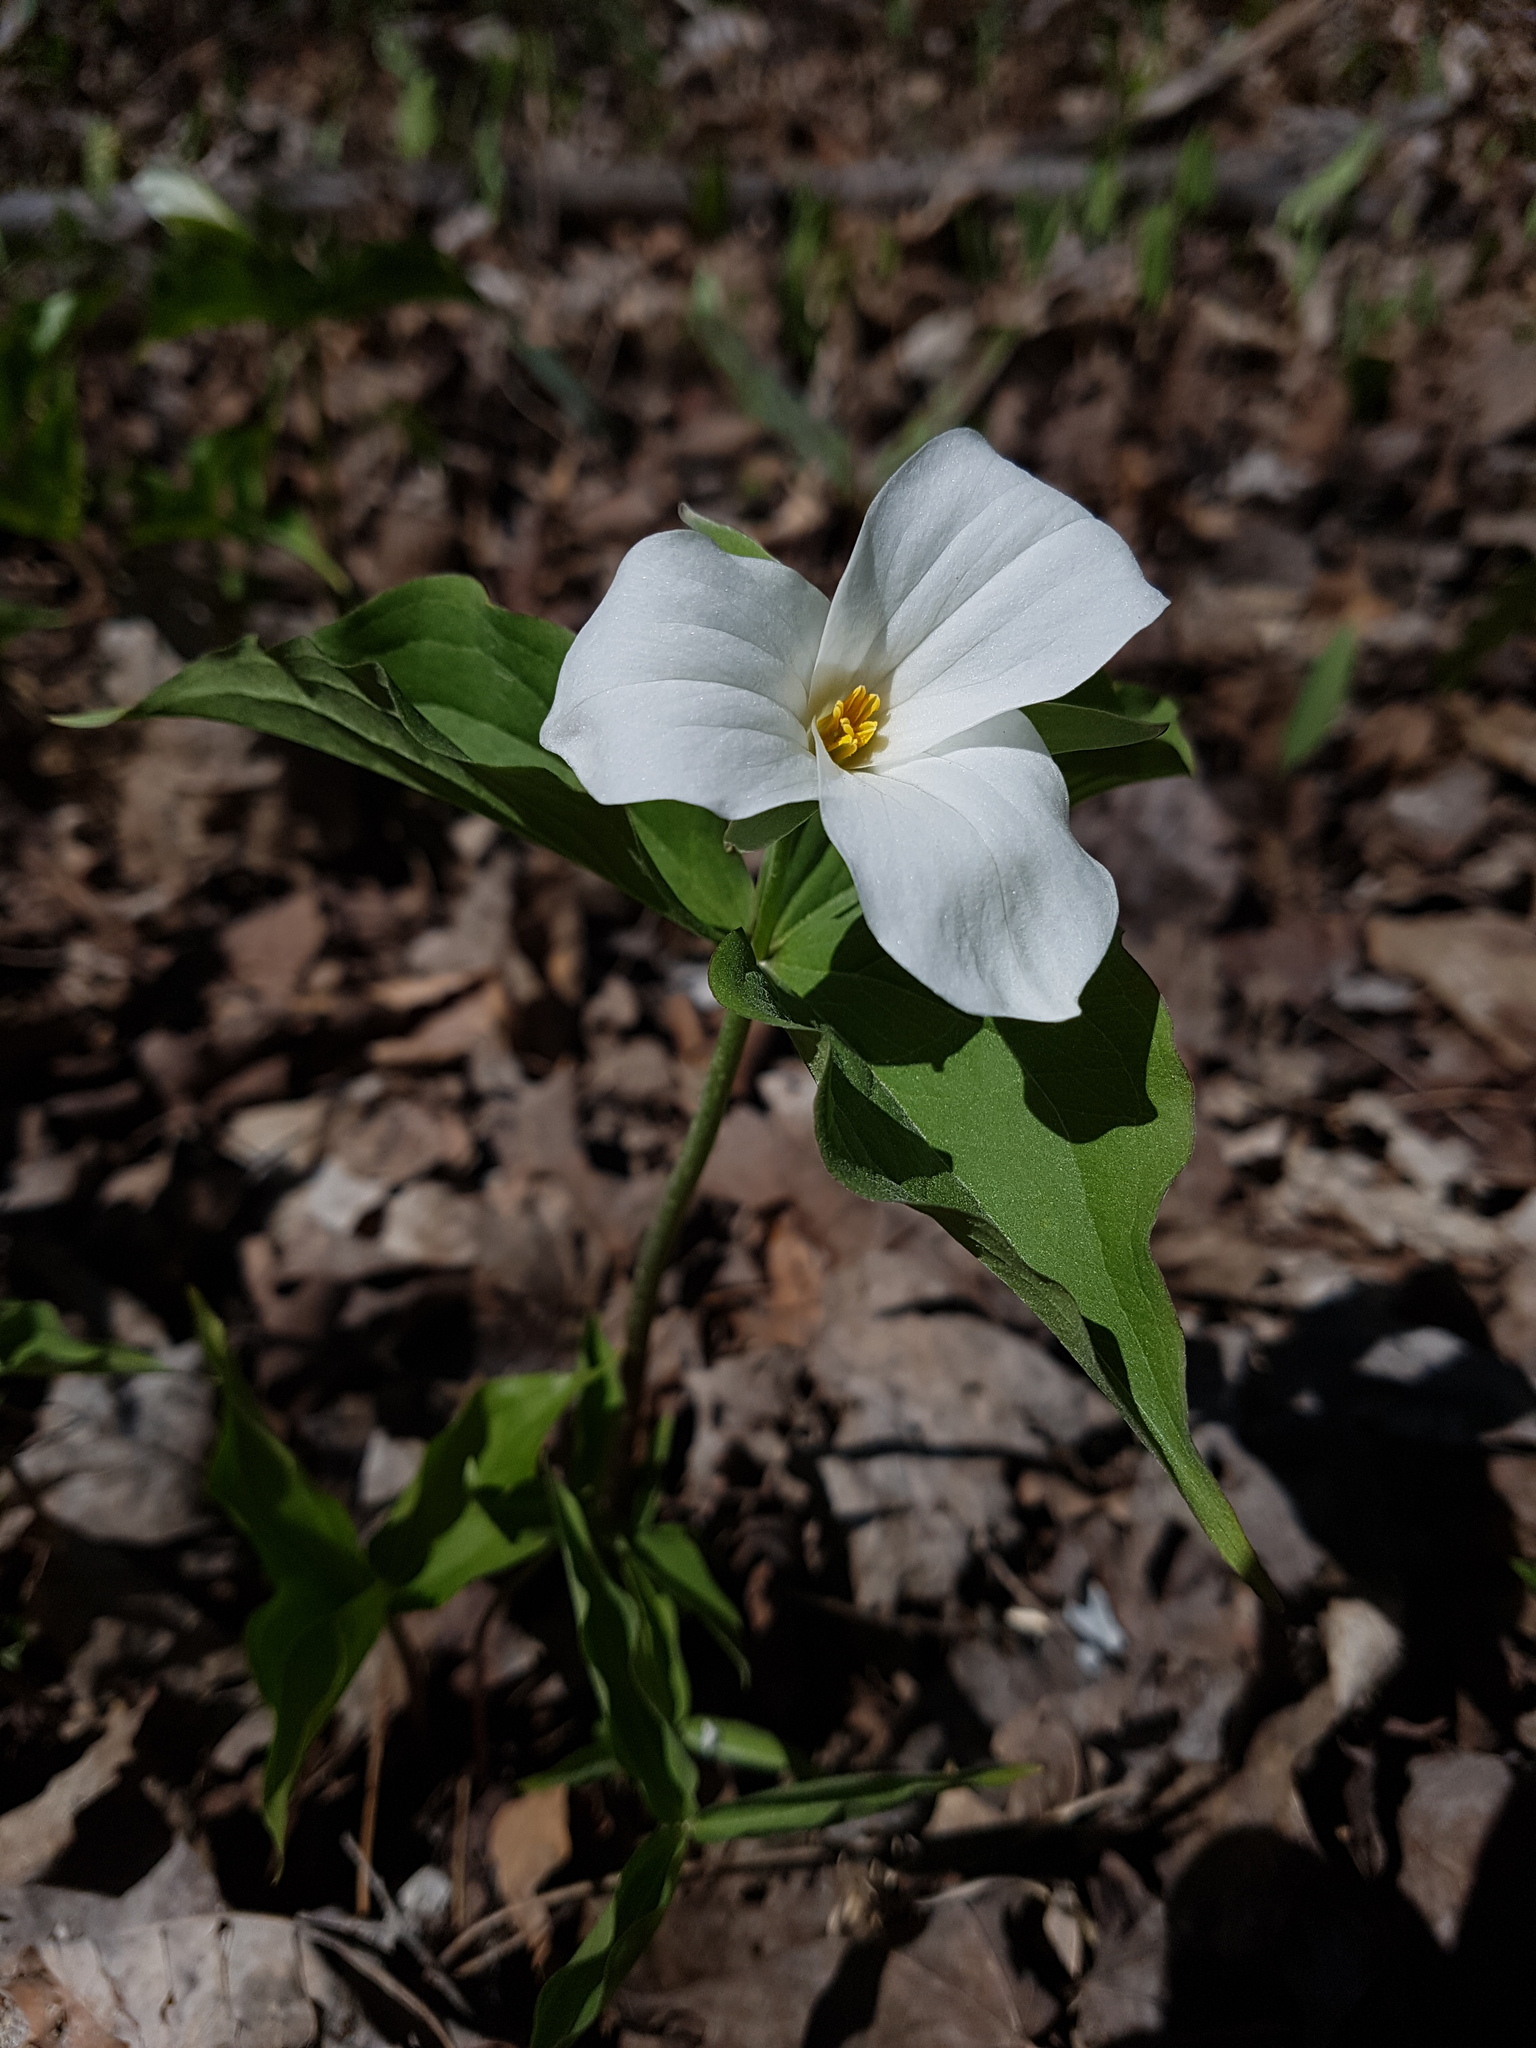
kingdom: Plantae
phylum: Tracheophyta
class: Liliopsida
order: Liliales
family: Melanthiaceae
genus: Trillium
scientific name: Trillium grandiflorum
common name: Great white trillium
